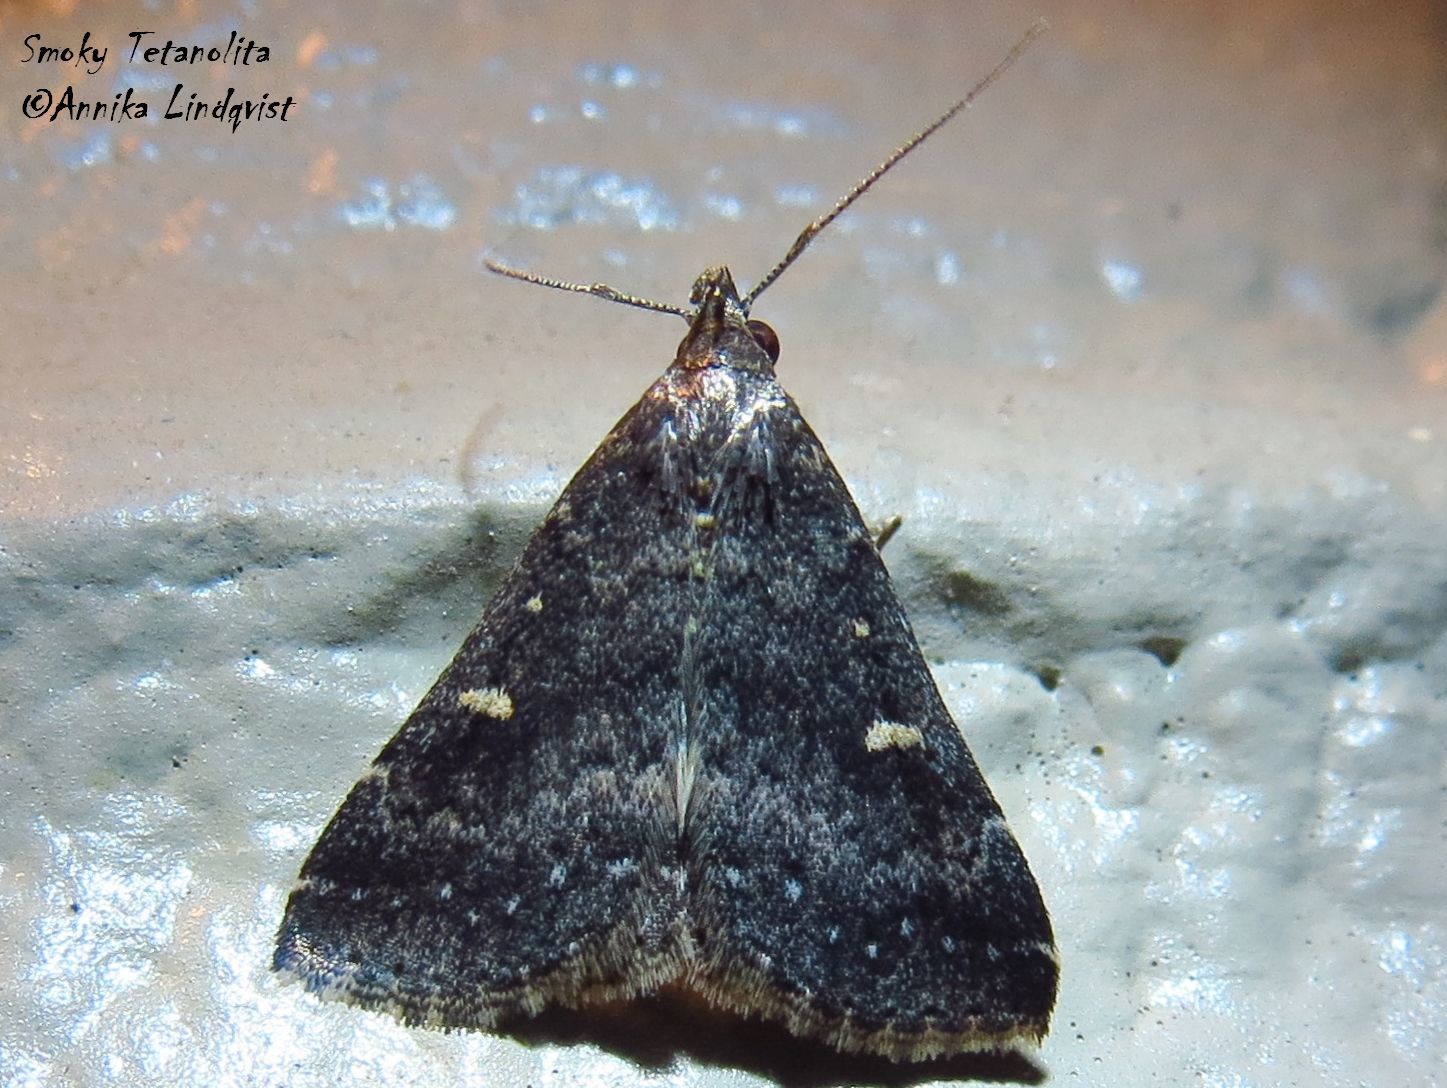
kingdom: Animalia
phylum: Arthropoda
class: Insecta
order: Lepidoptera
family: Erebidae
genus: Tetanolita
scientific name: Tetanolita mynesalis
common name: Smoky tetanolita moth
